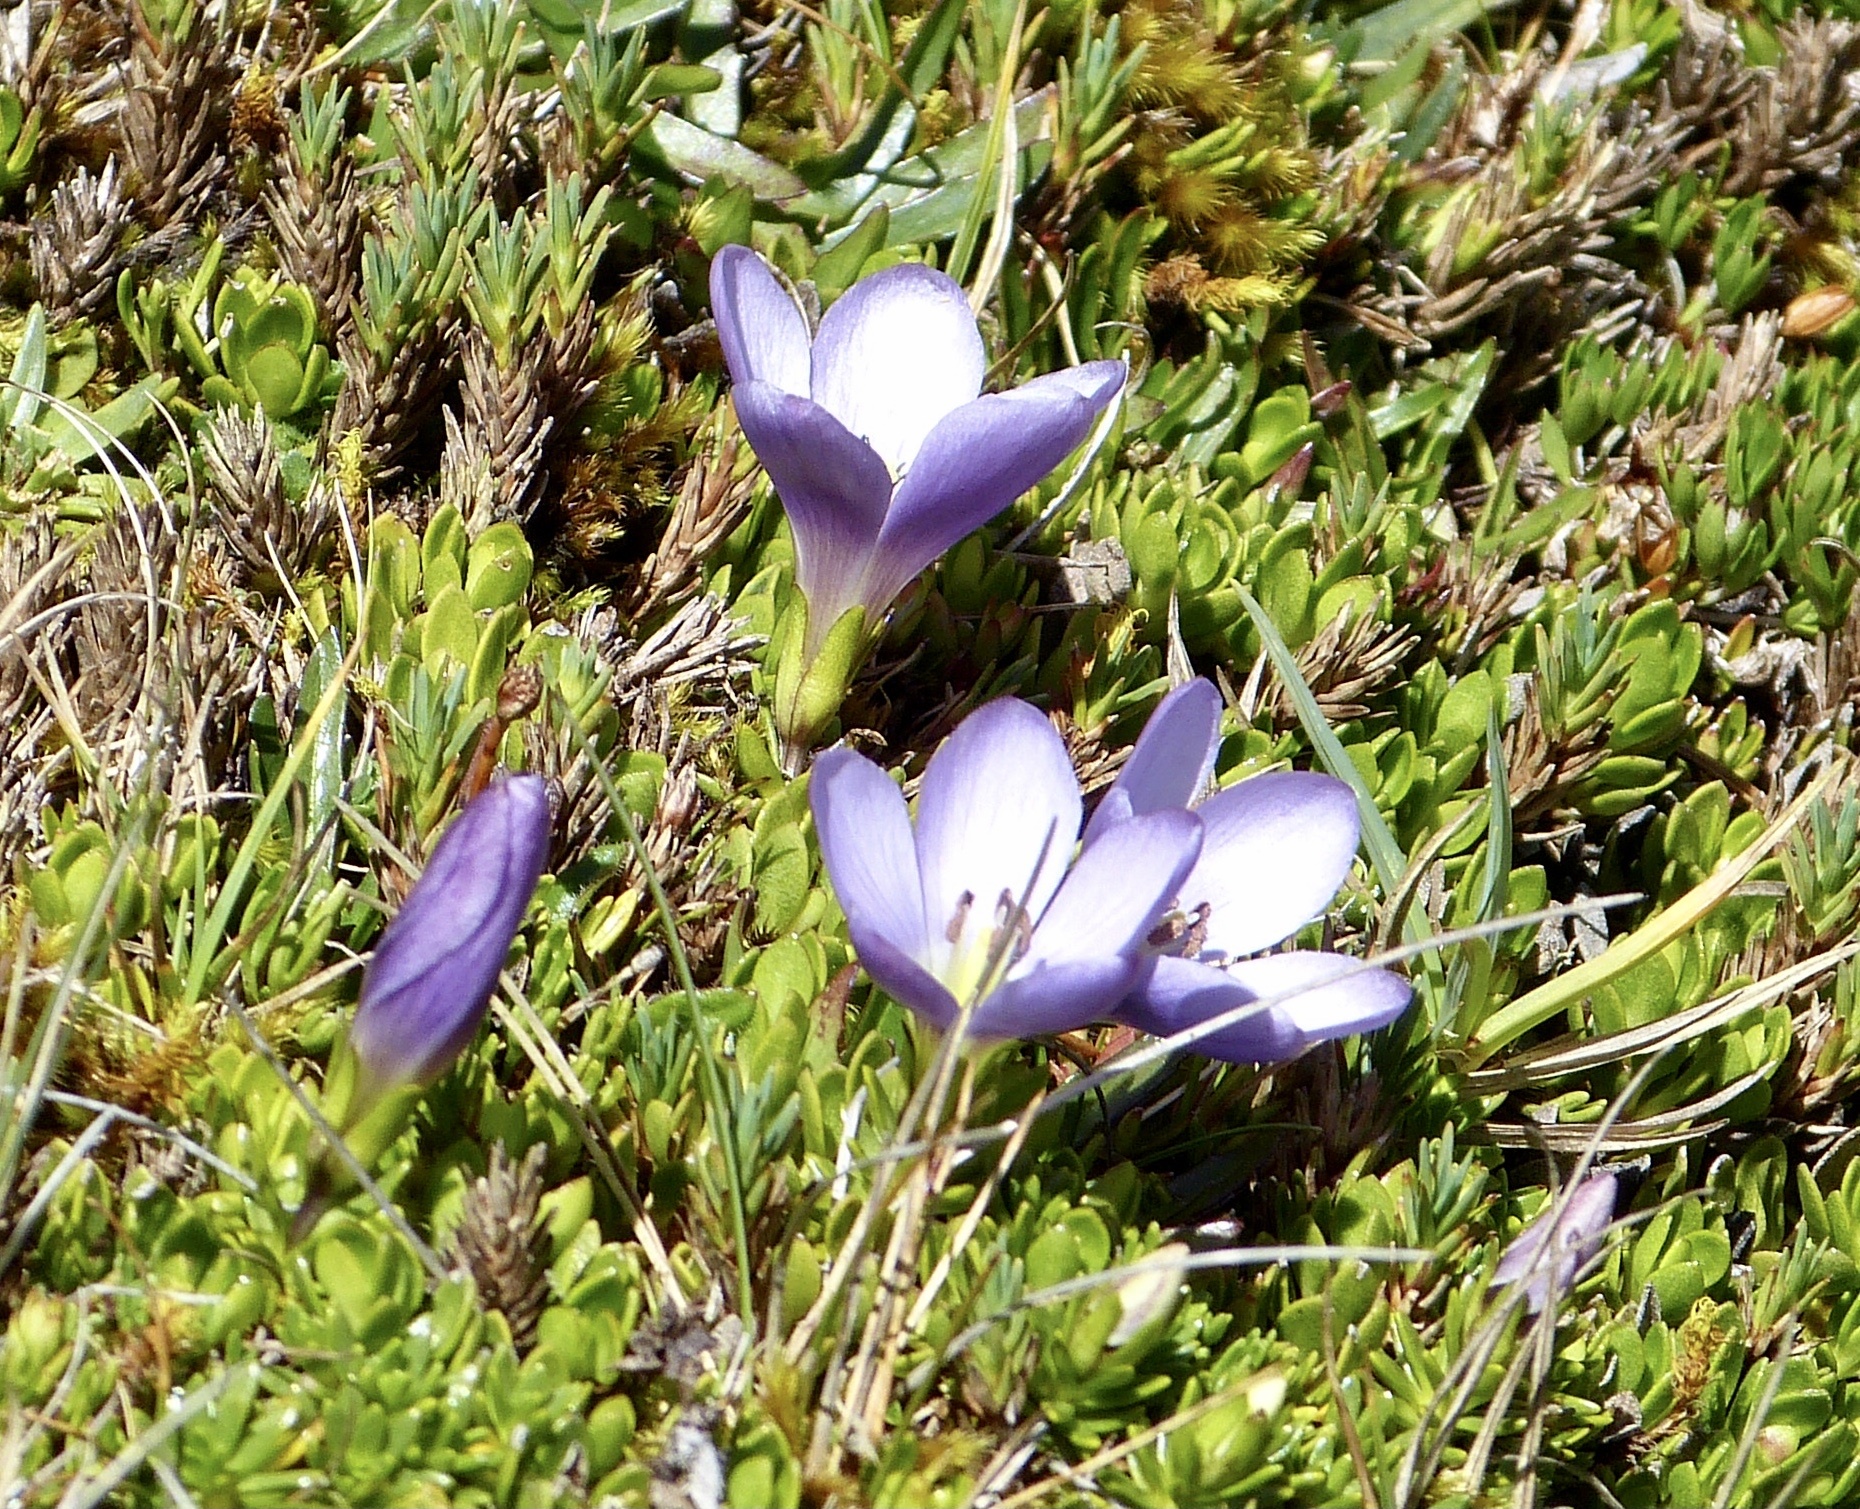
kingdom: Plantae
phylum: Tracheophyta
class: Magnoliopsida
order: Gentianales
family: Gentianaceae
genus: Gentianella
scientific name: Gentianella cerastioides
